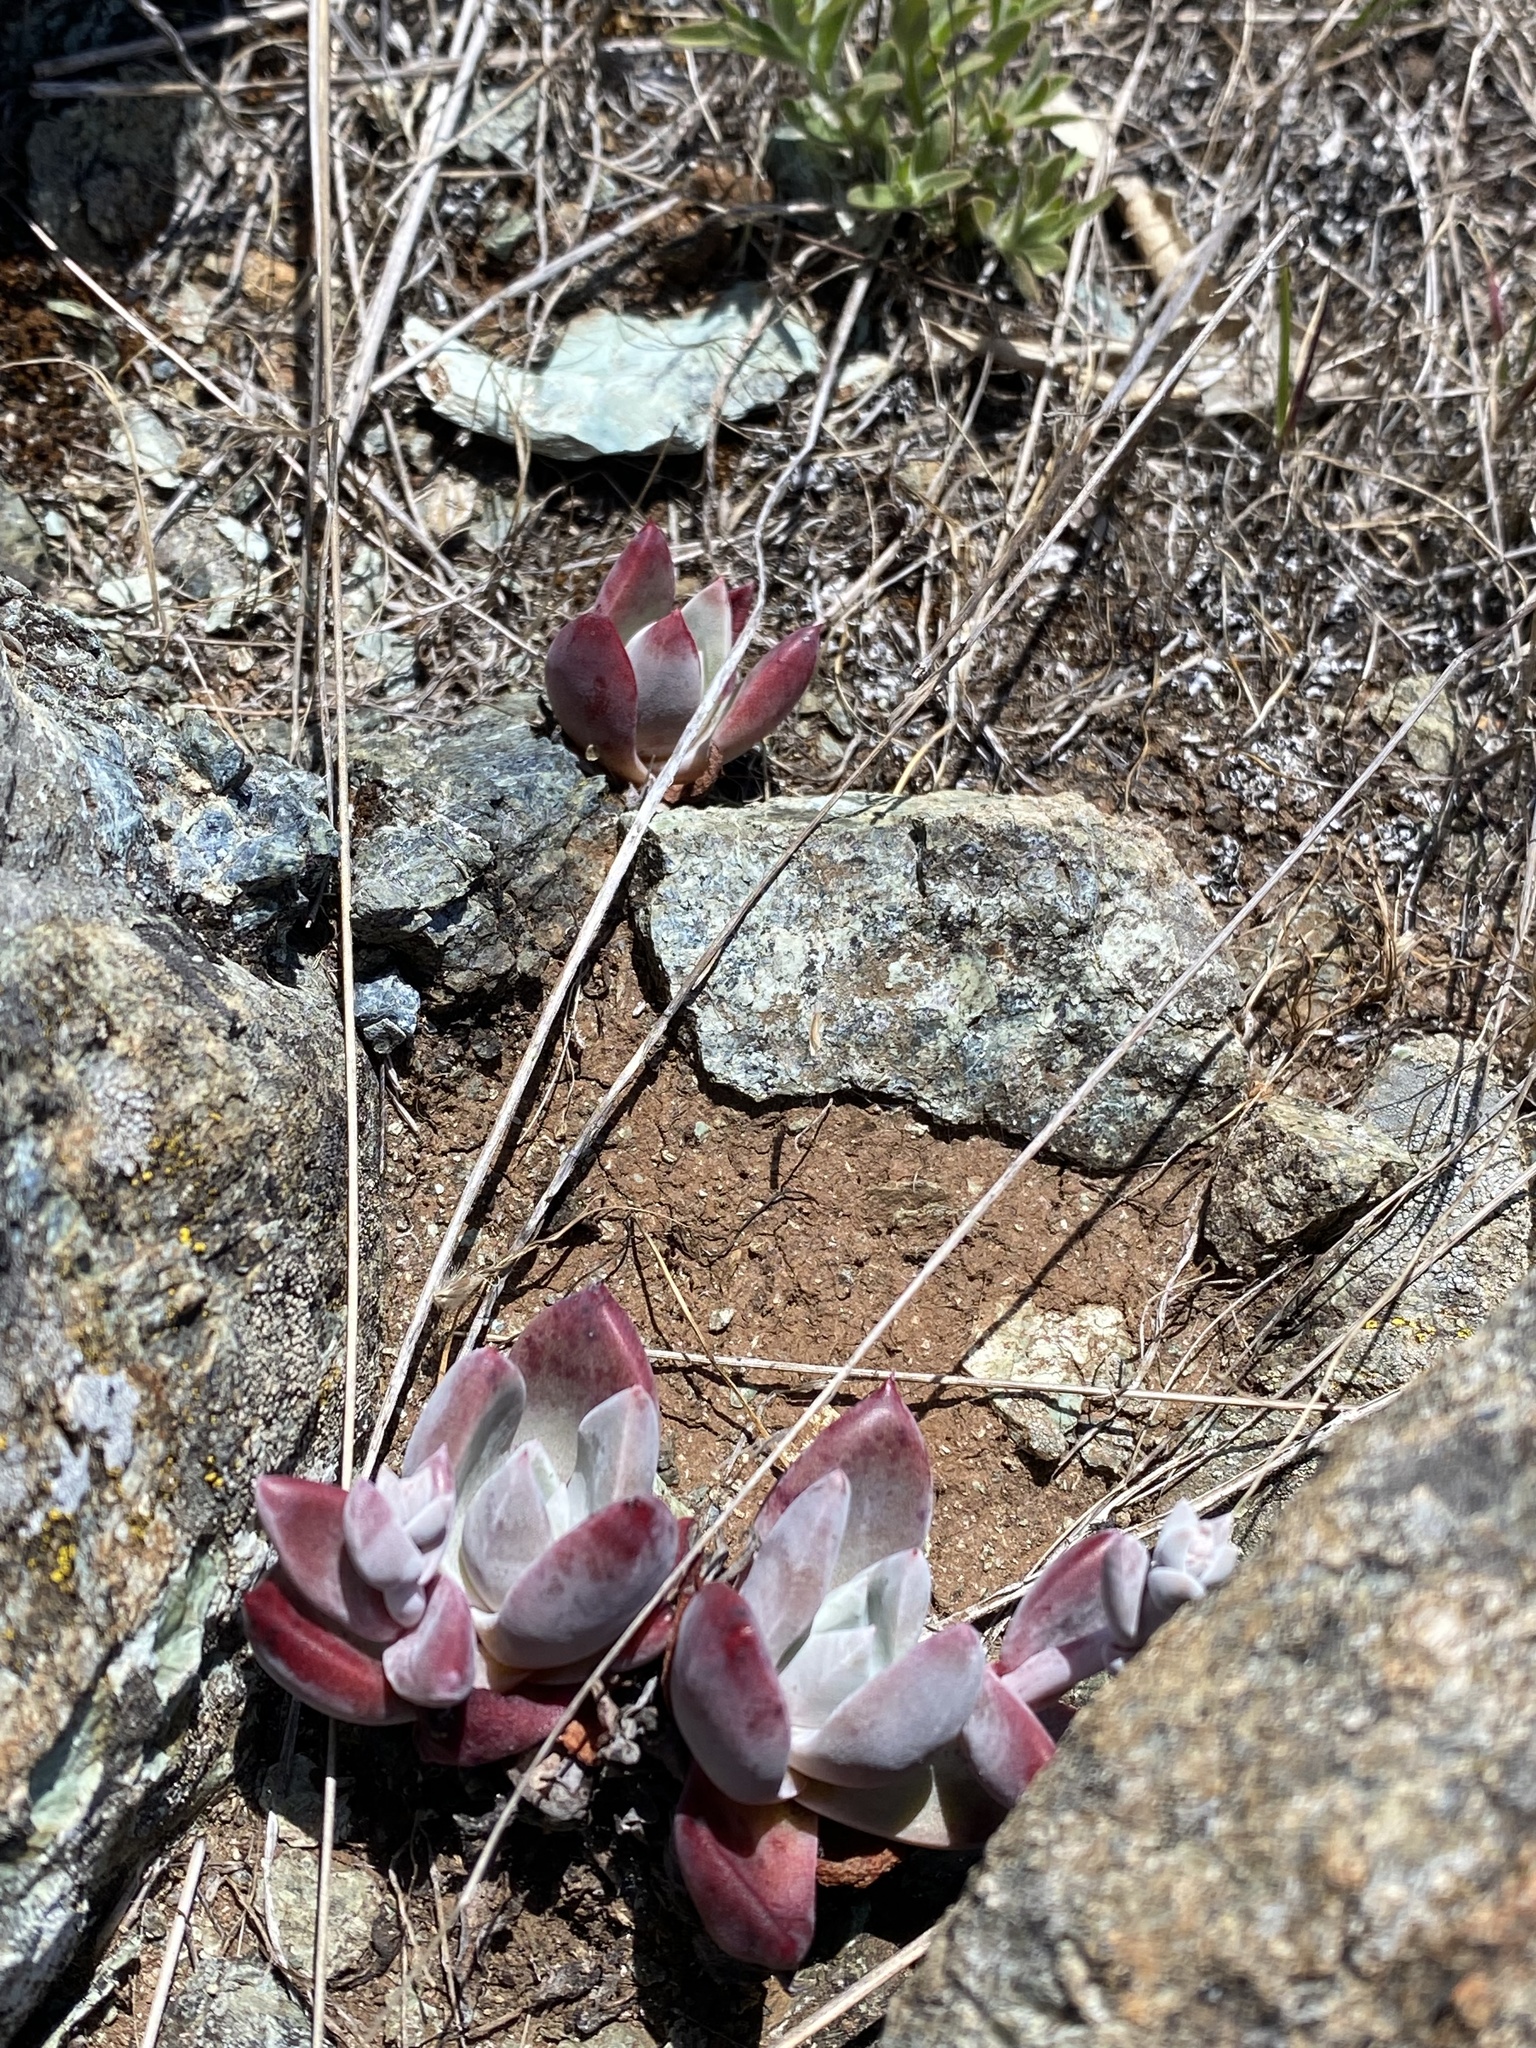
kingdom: Plantae
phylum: Tracheophyta
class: Magnoliopsida
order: Saxifragales
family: Crassulaceae
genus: Dudleya
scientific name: Dudleya farinosa
